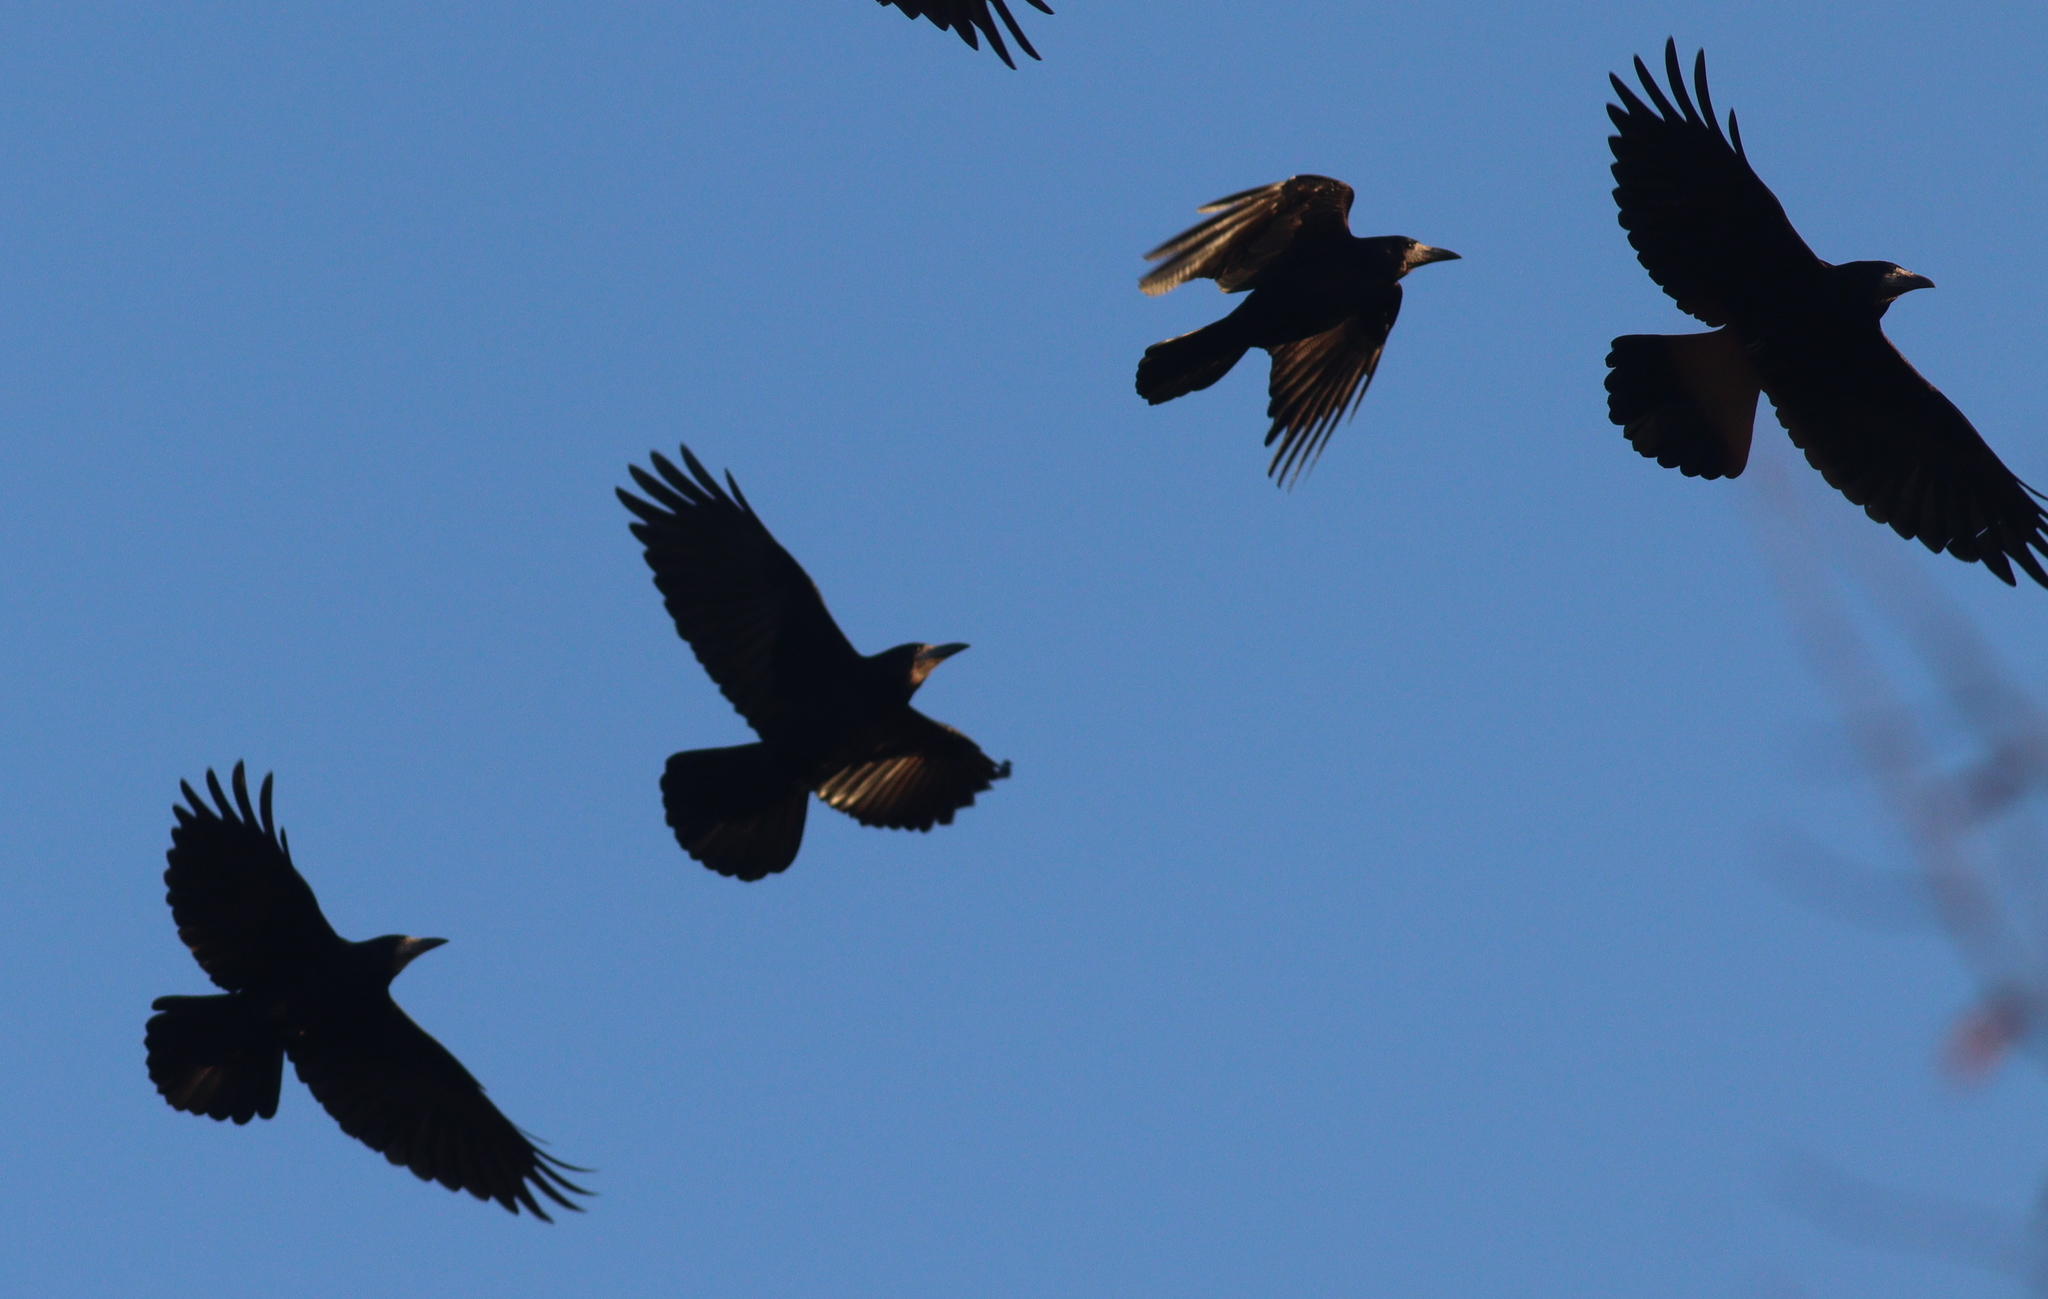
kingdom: Animalia
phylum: Chordata
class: Aves
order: Passeriformes
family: Corvidae
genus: Corvus
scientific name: Corvus frugilegus
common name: Rook
